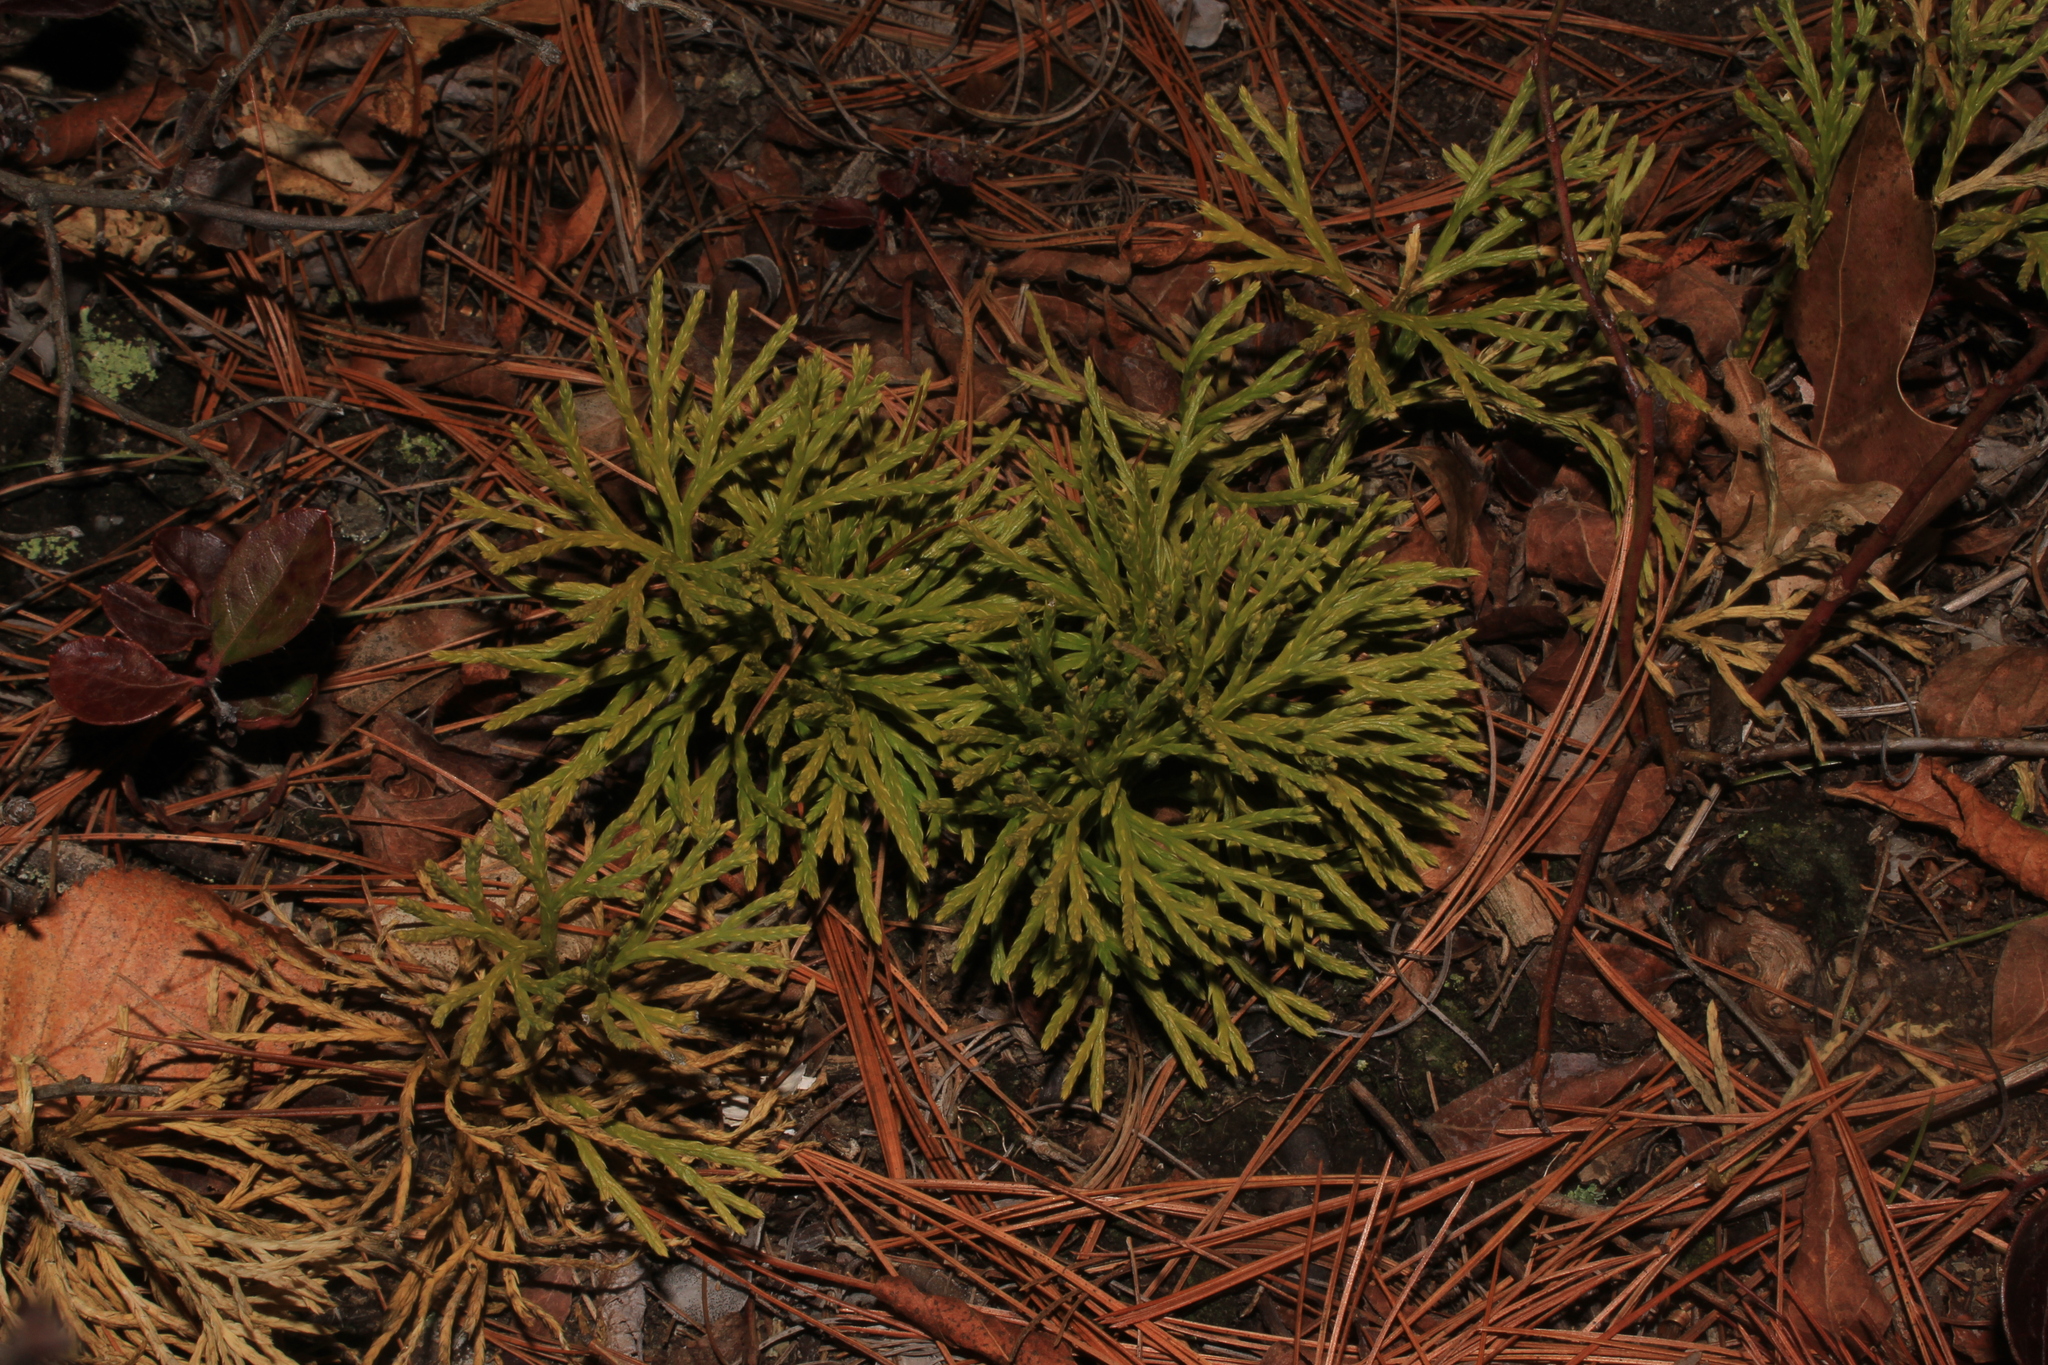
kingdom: Plantae
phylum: Tracheophyta
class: Lycopodiopsida
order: Lycopodiales
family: Lycopodiaceae
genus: Diphasiastrum
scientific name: Diphasiastrum tristachyum
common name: Blue ground-cedar
